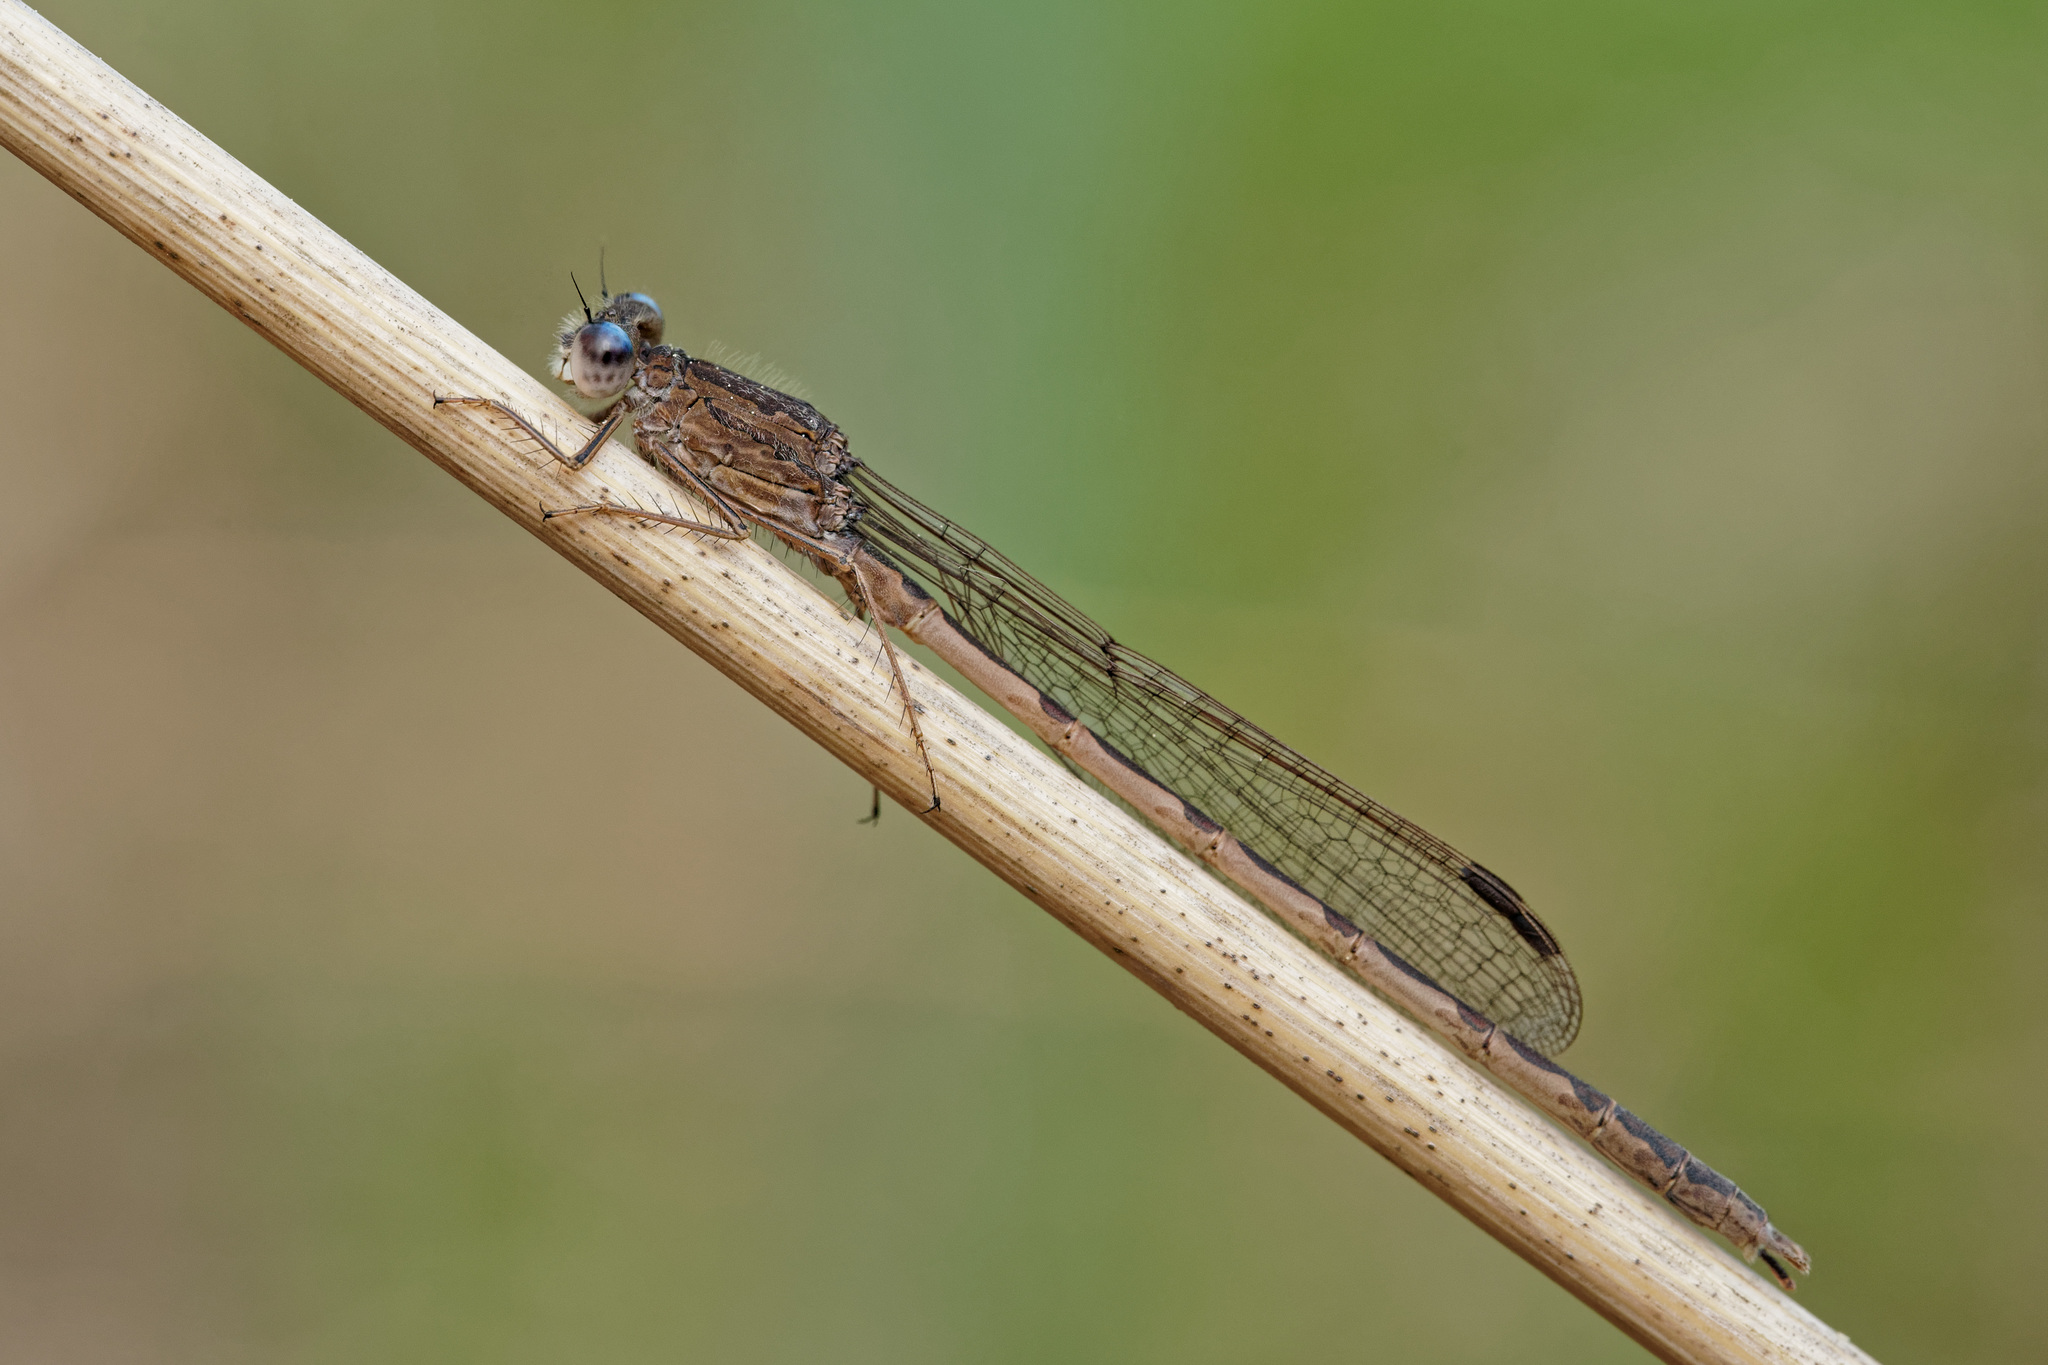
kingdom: Animalia
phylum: Arthropoda
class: Insecta
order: Odonata
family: Lestidae
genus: Sympecma
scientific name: Sympecma paedisca
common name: Siberian winter damsel
